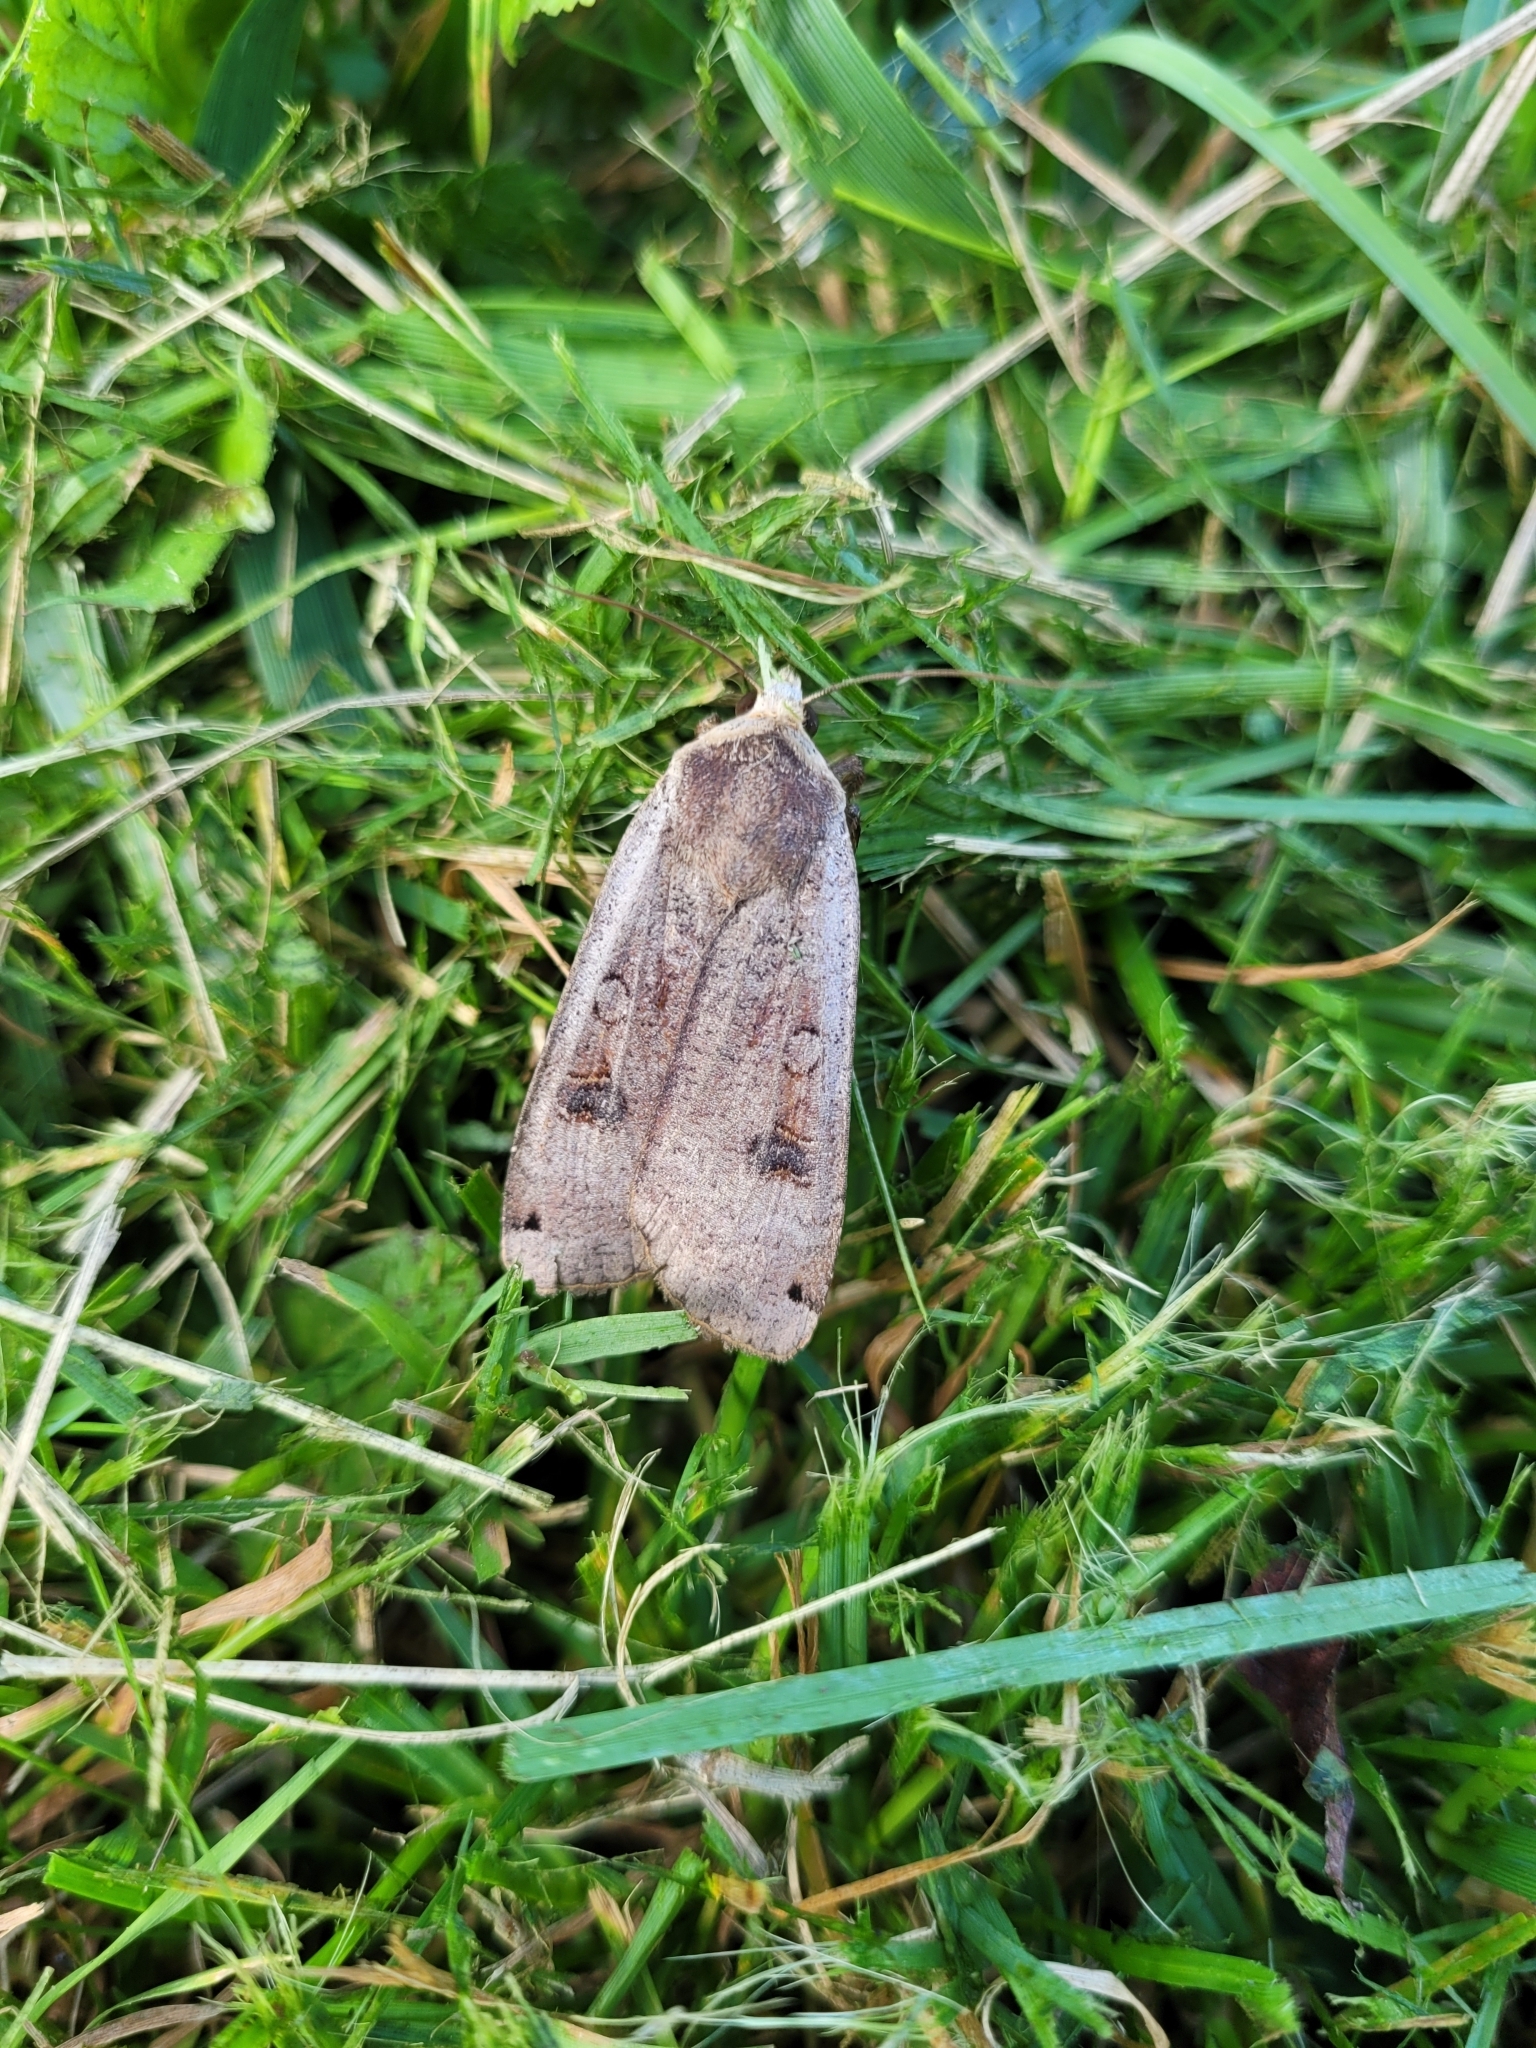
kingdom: Animalia
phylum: Arthropoda
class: Insecta
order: Lepidoptera
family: Noctuidae
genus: Noctua
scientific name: Noctua pronuba
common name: Large yellow underwing
